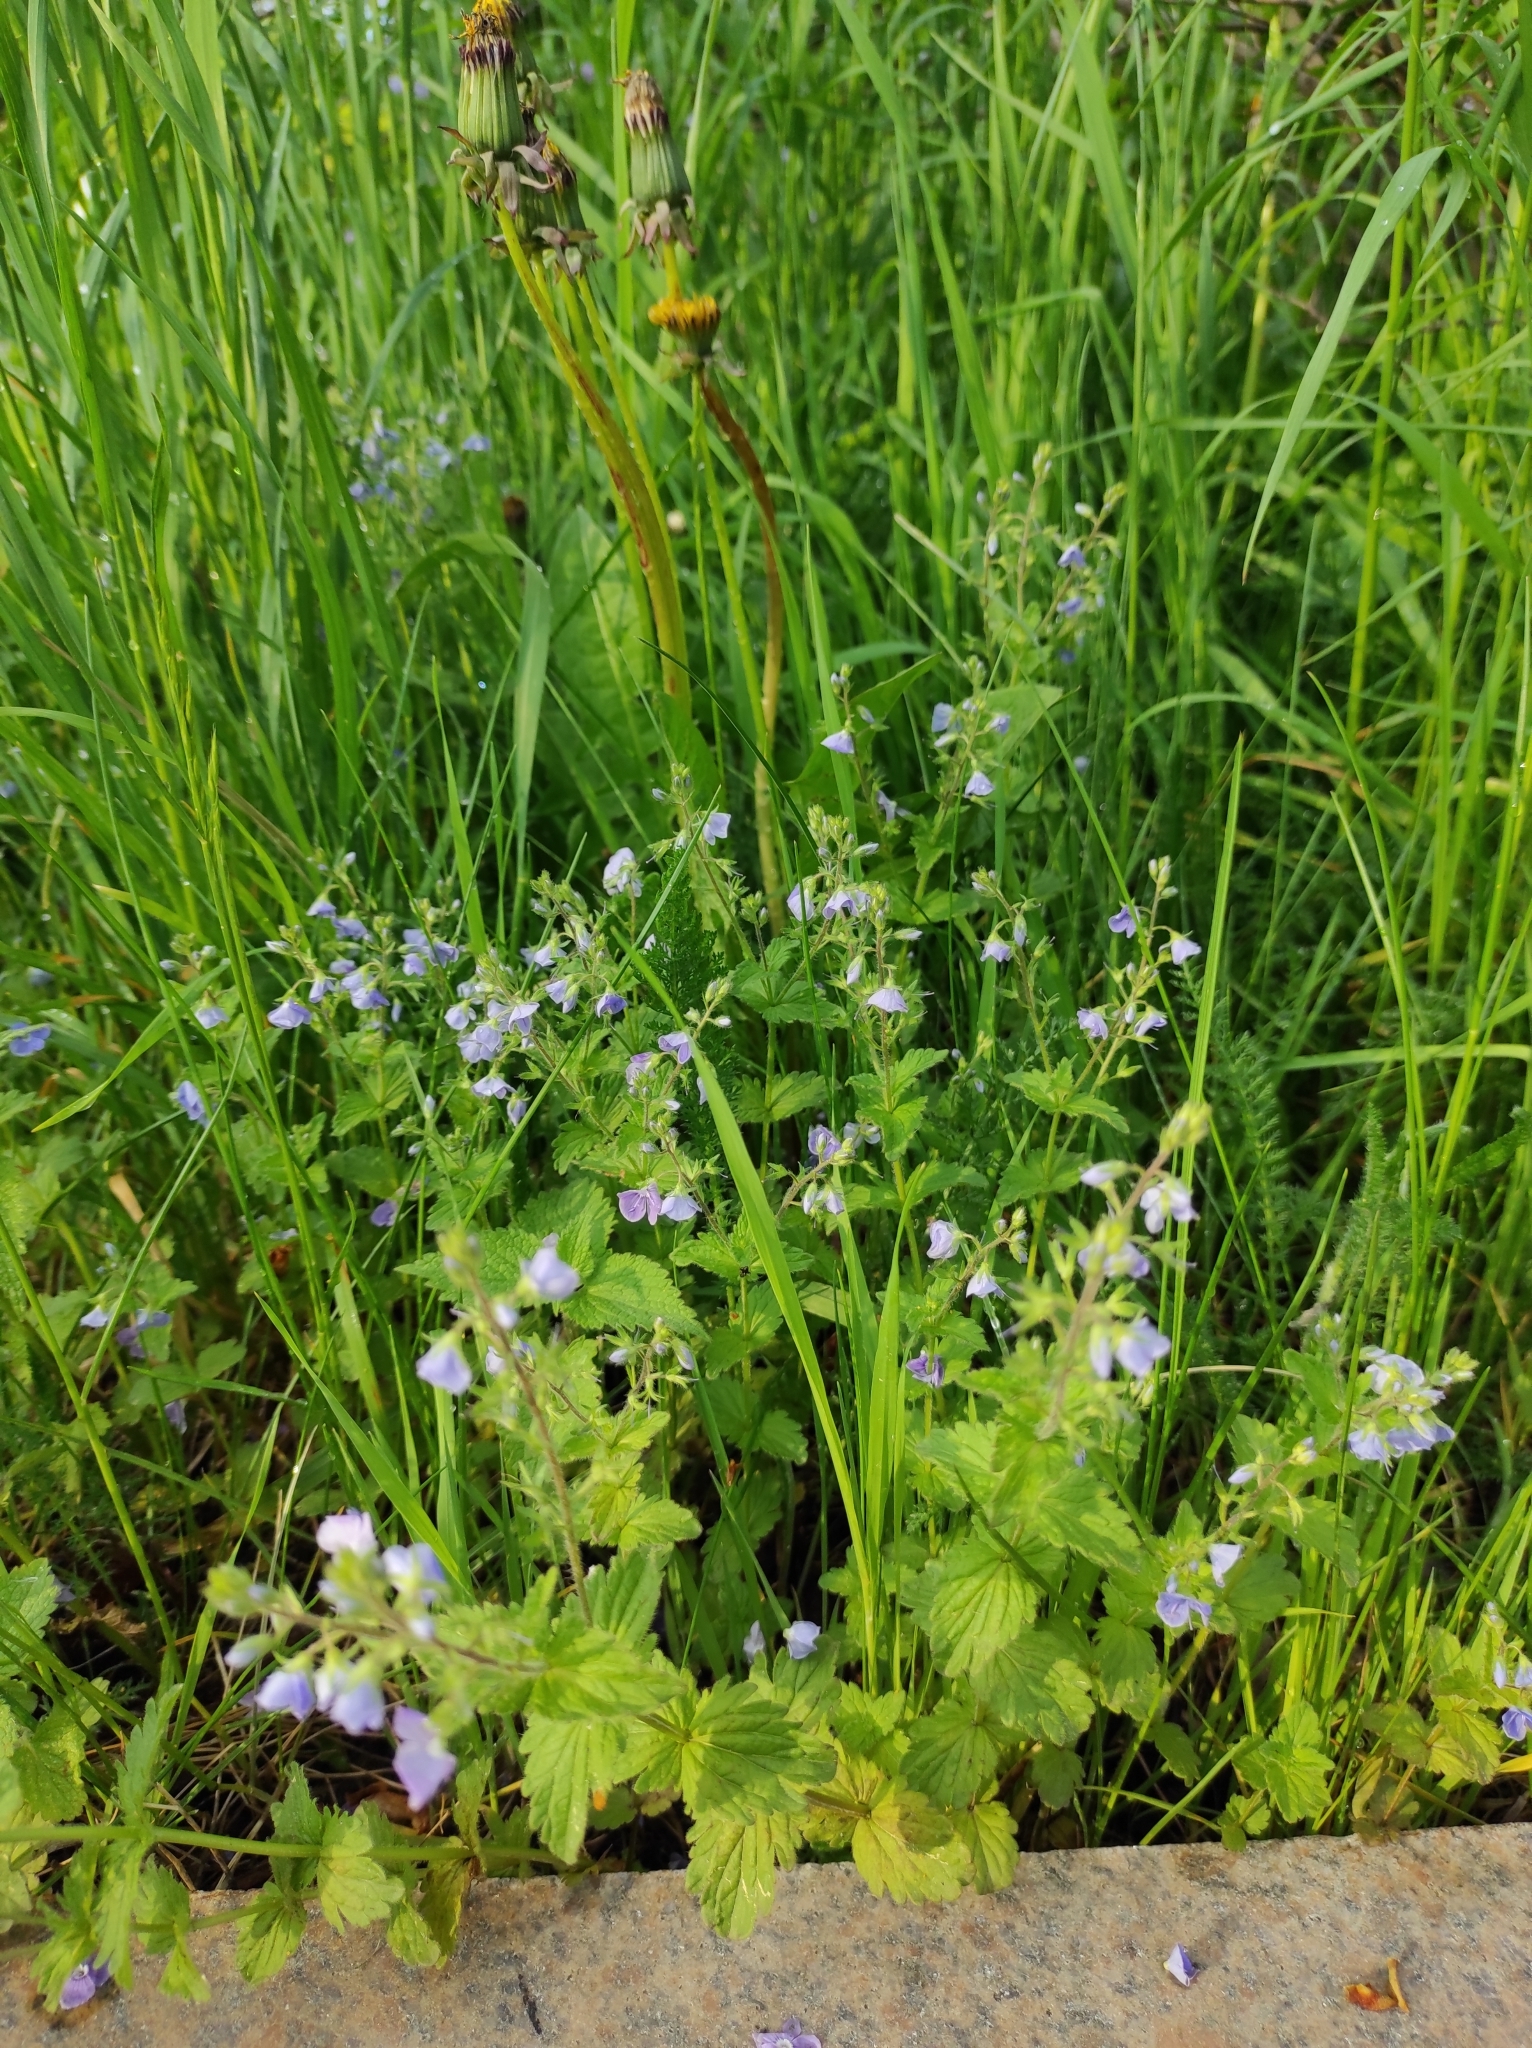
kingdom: Plantae
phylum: Tracheophyta
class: Magnoliopsida
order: Lamiales
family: Plantaginaceae
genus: Veronica
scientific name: Veronica chamaedrys
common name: Germander speedwell
